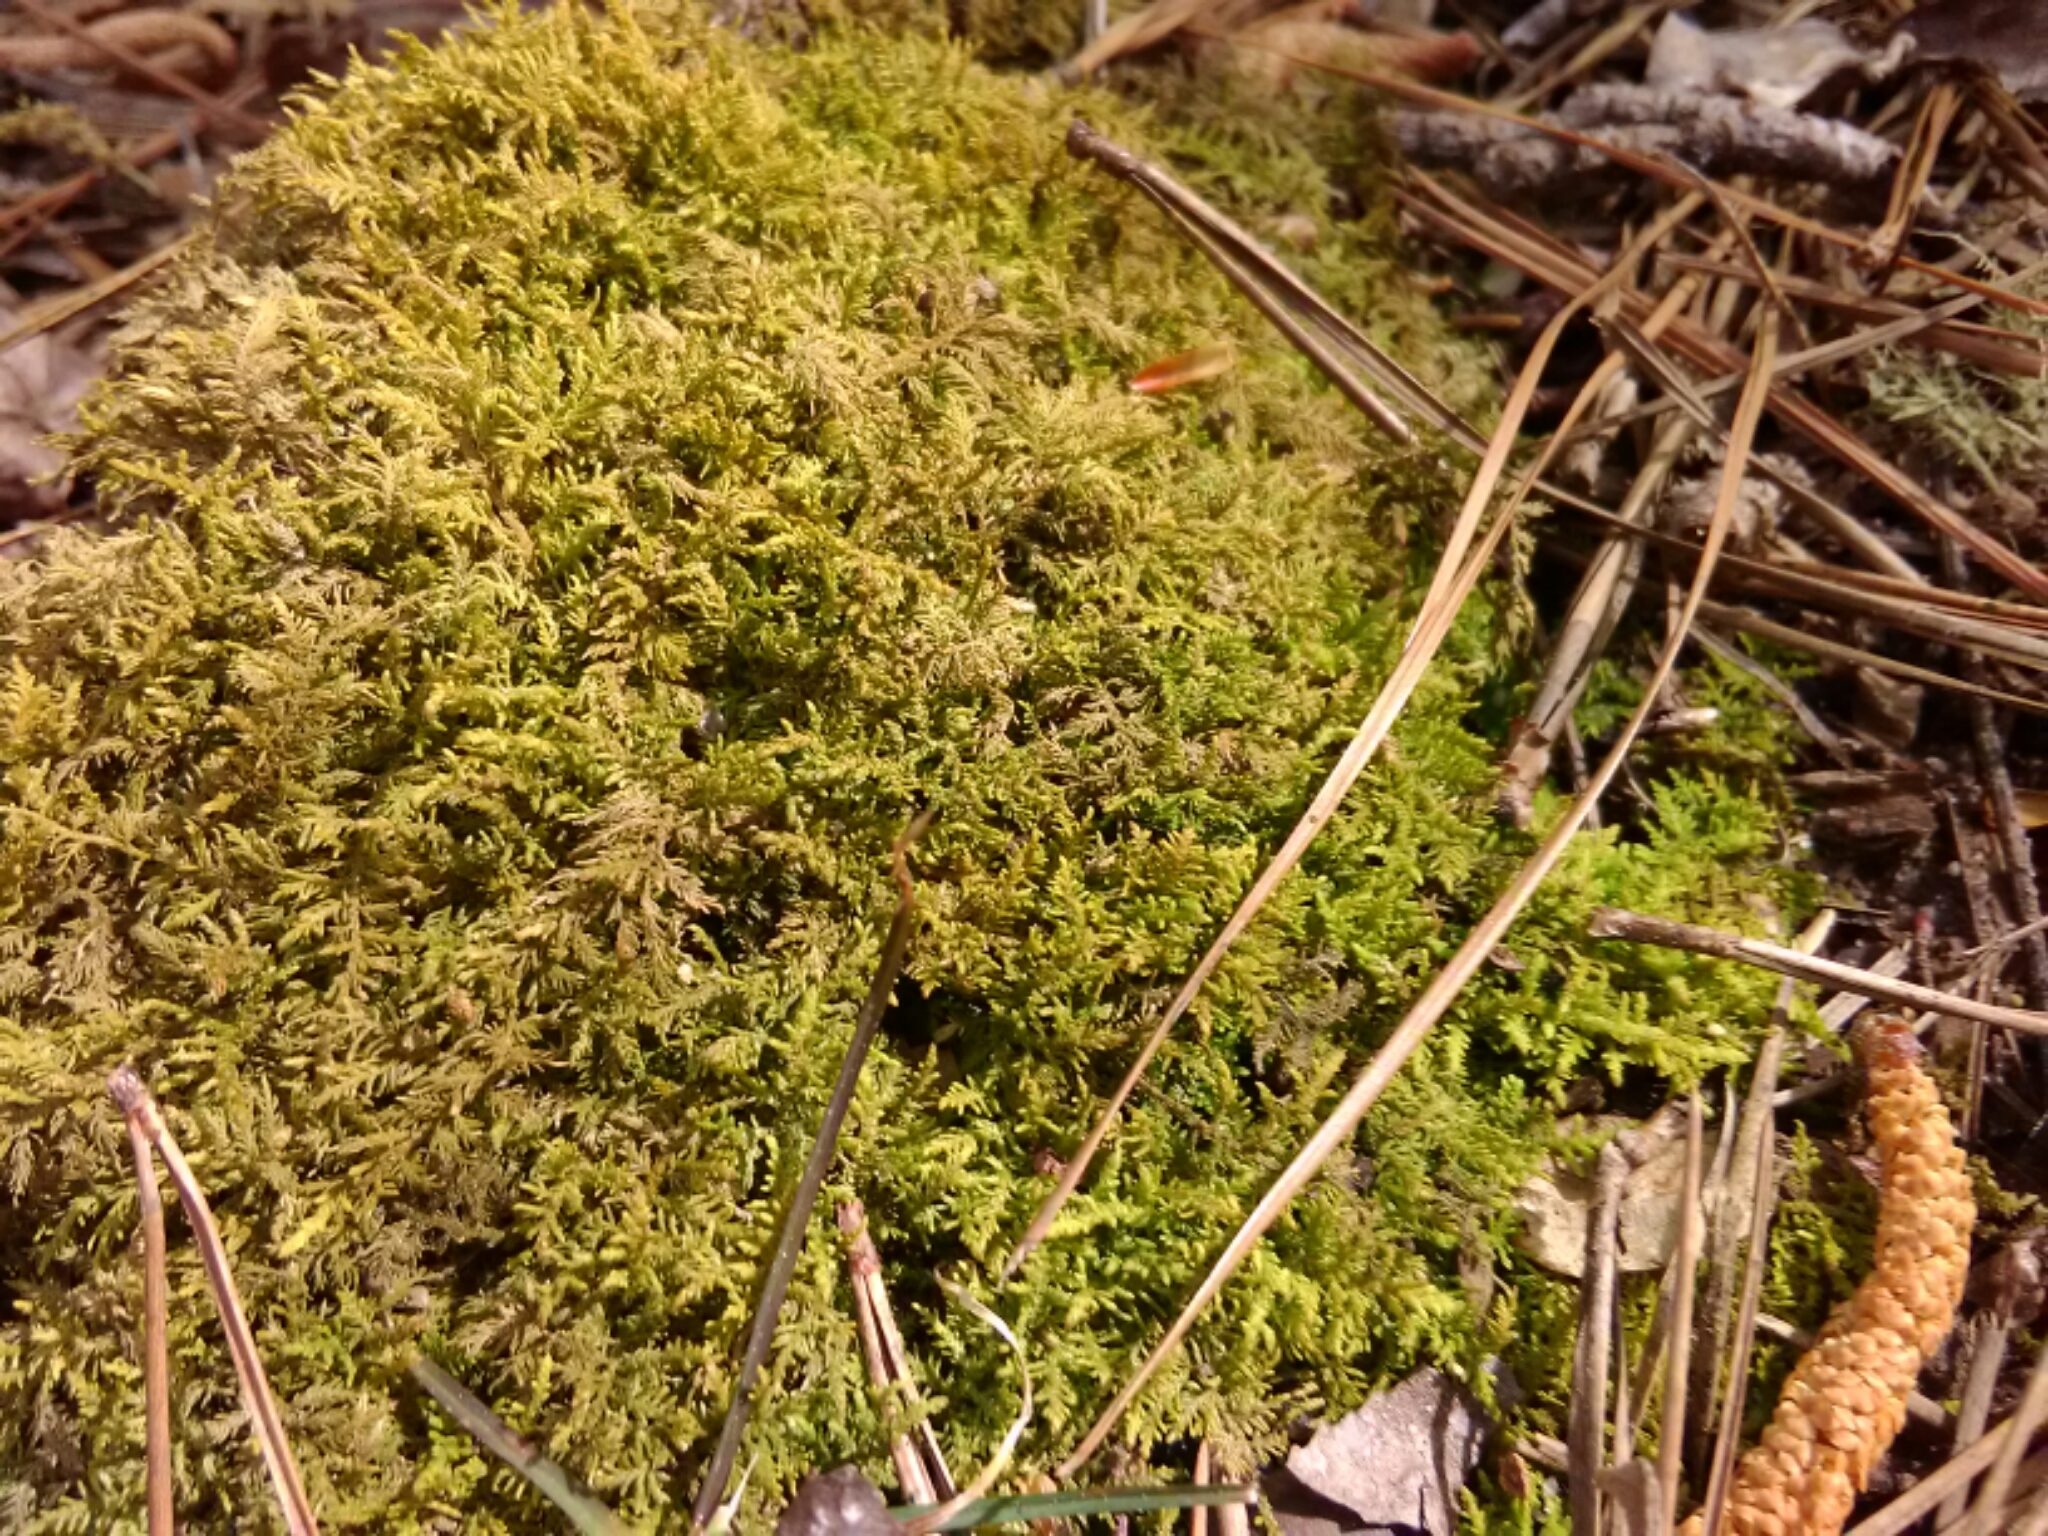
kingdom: Plantae
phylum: Bryophyta
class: Bryopsida
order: Hypnales
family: Thuidiaceae
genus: Thuidium
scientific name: Thuidium delicatulum
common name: Delicate fern moss
